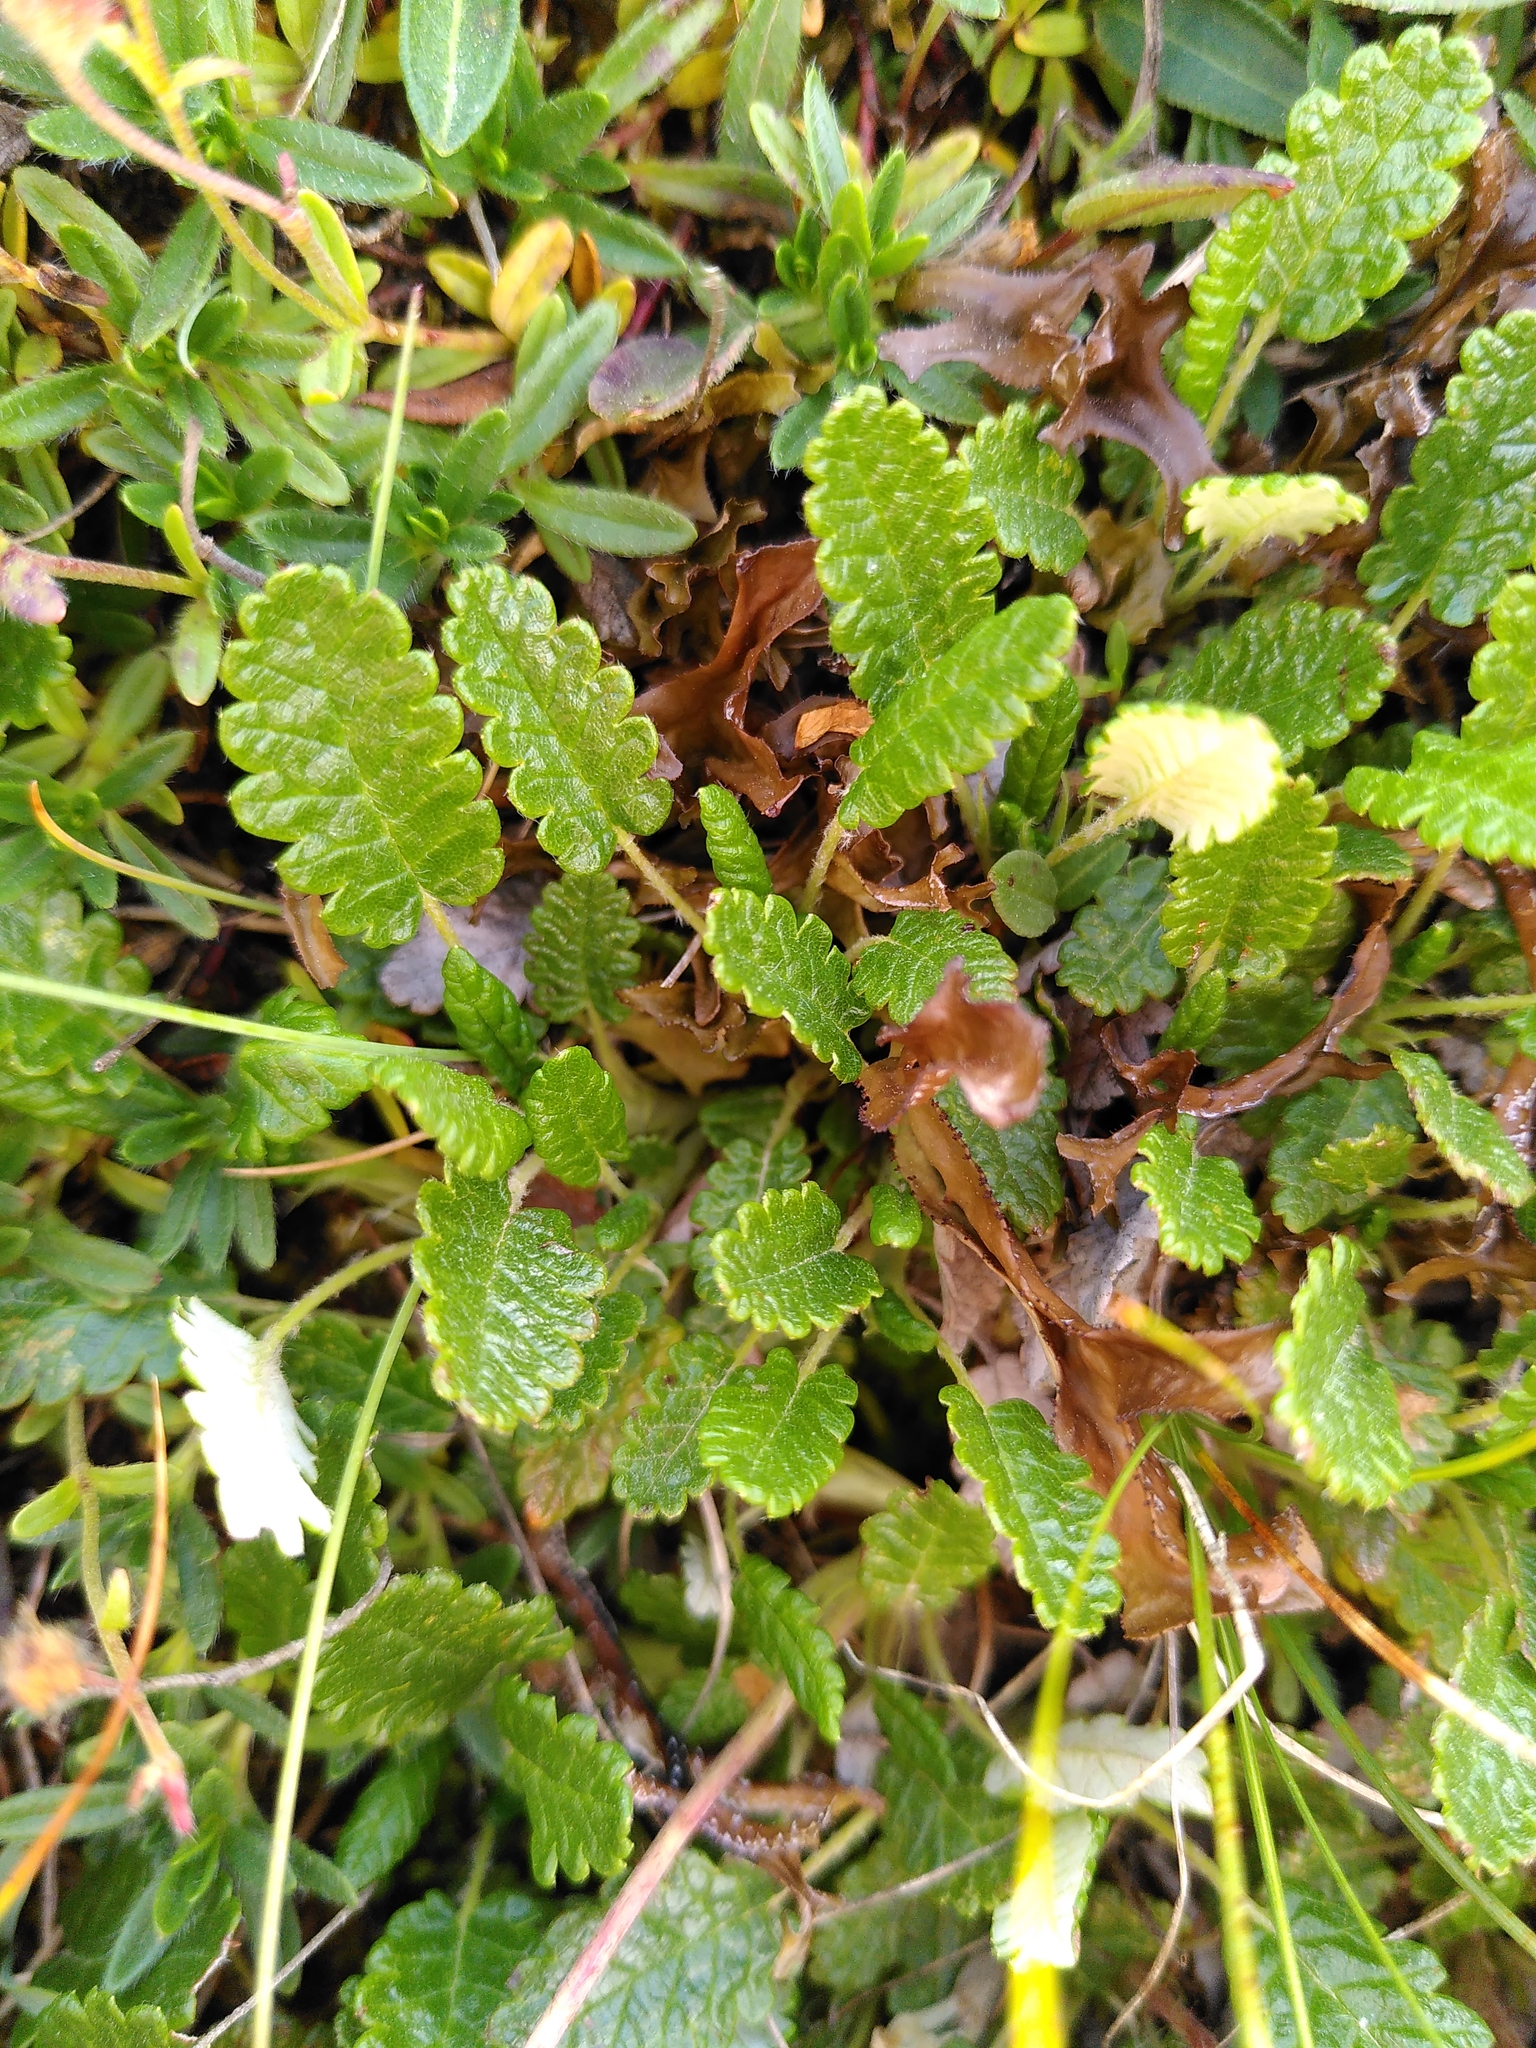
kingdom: Plantae
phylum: Tracheophyta
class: Magnoliopsida
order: Rosales
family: Rosaceae
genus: Dryas
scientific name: Dryas octopetala
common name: Eight-petal mountain-avens
